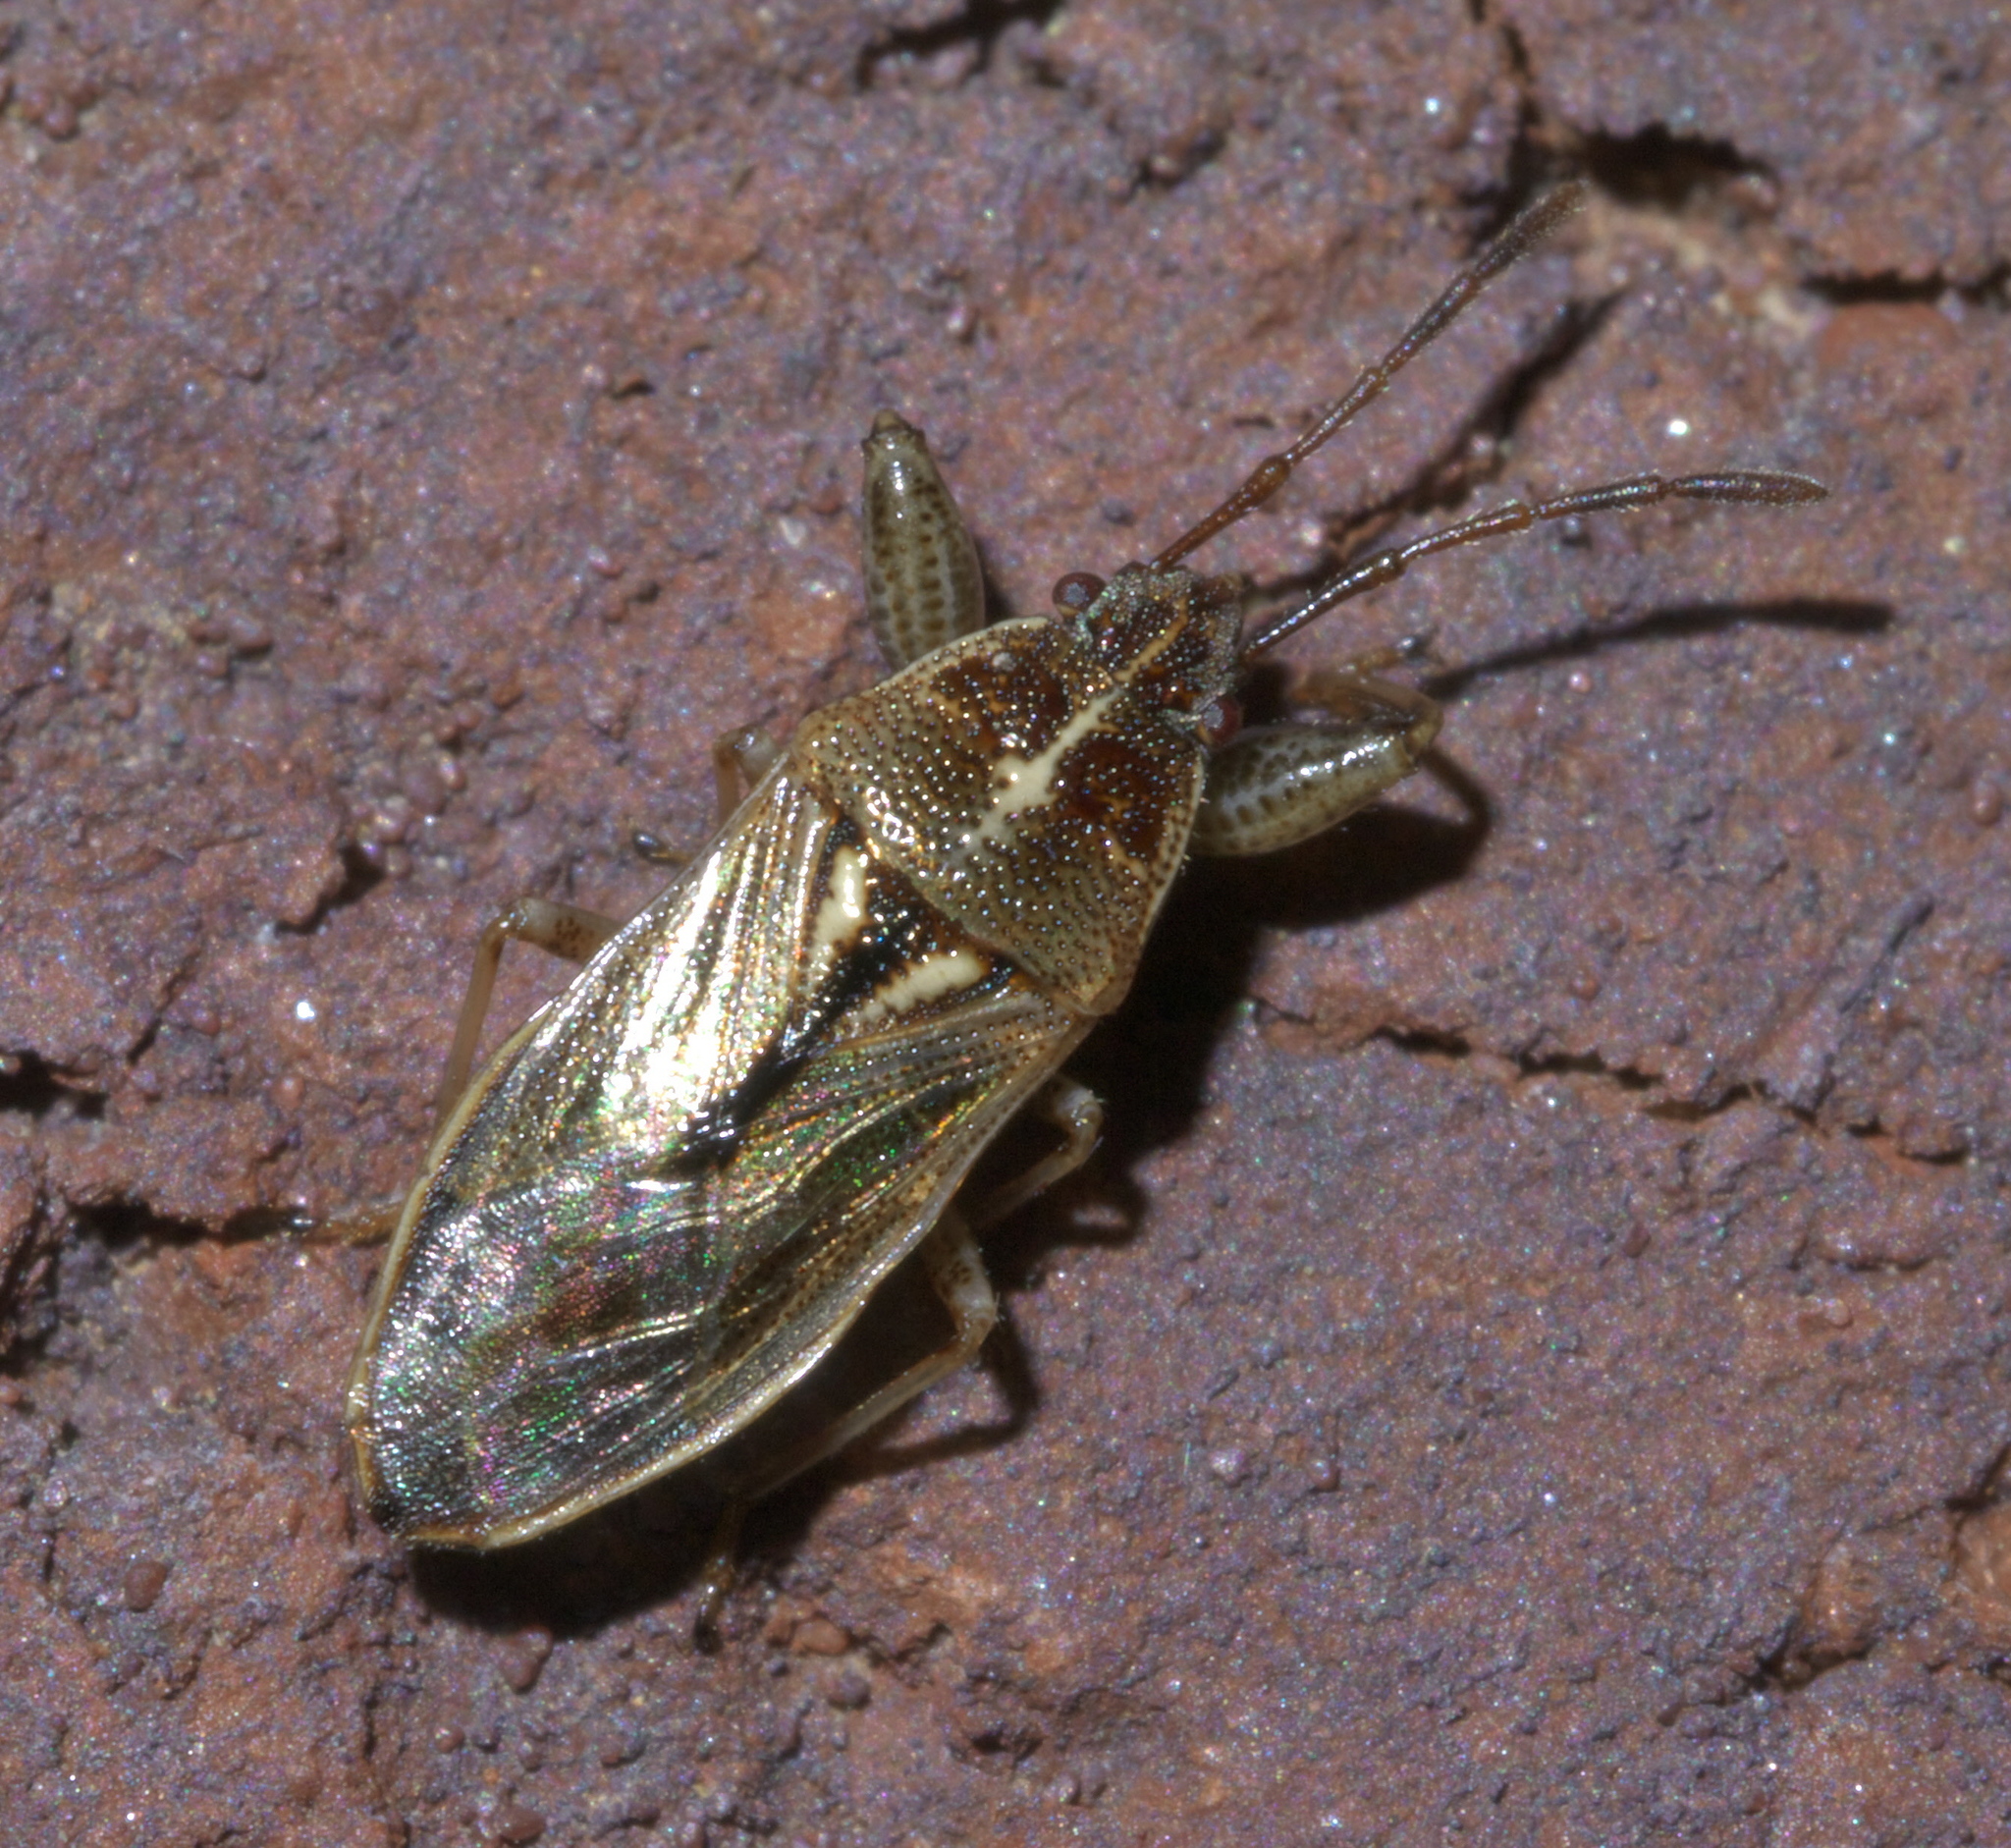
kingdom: Animalia
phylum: Arthropoda
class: Insecta
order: Hemiptera
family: Pachygronthidae
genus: Oedancala
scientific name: Oedancala dorsalis
